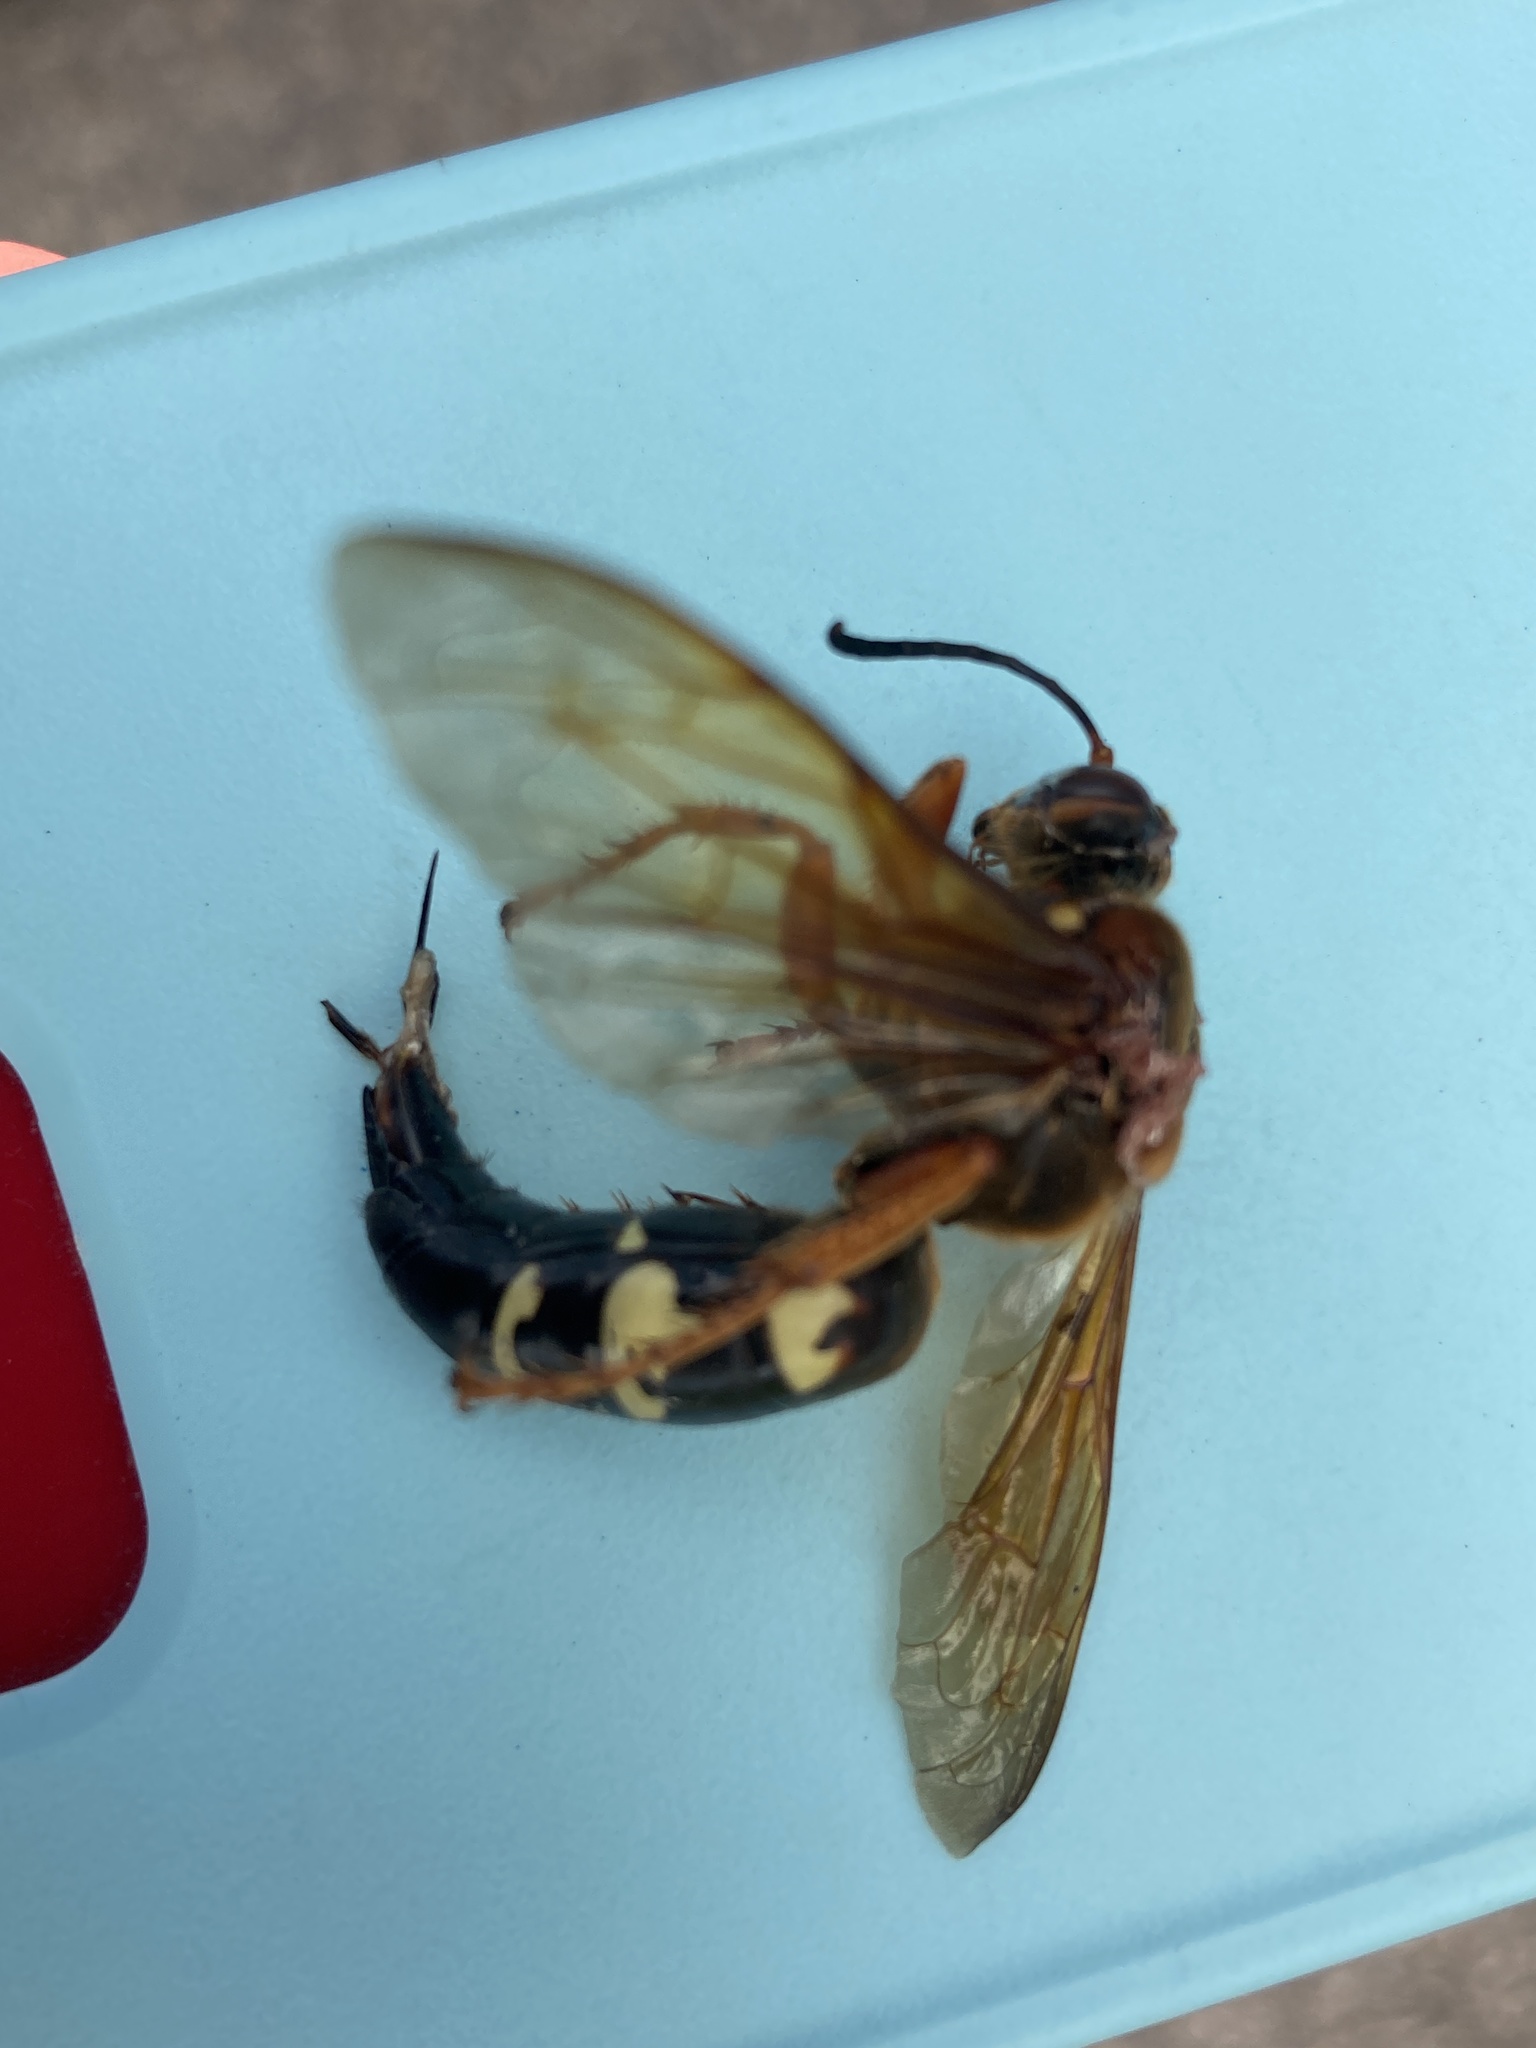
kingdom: Animalia
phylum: Arthropoda
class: Insecta
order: Hymenoptera
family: Crabronidae
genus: Sphecius
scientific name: Sphecius speciosus
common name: Cicada killer
